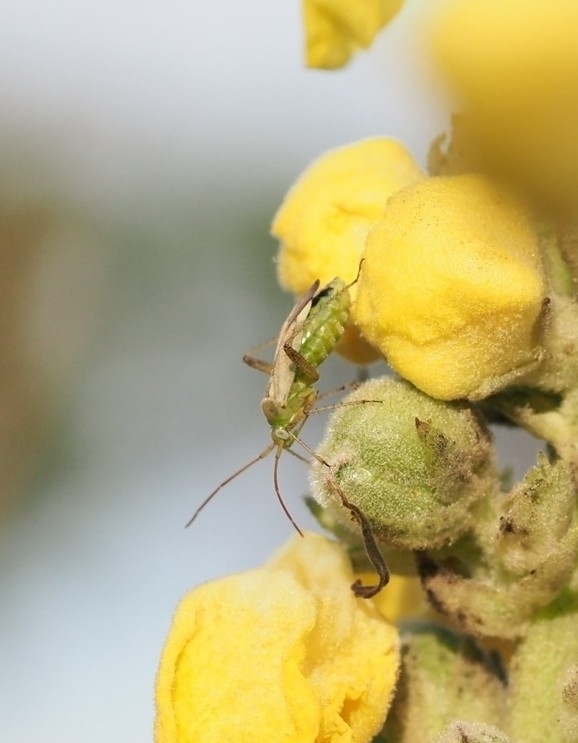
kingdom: Animalia
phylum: Arthropoda
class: Insecta
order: Hemiptera
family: Miridae
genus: Adelphocoris
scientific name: Adelphocoris lineolatus
